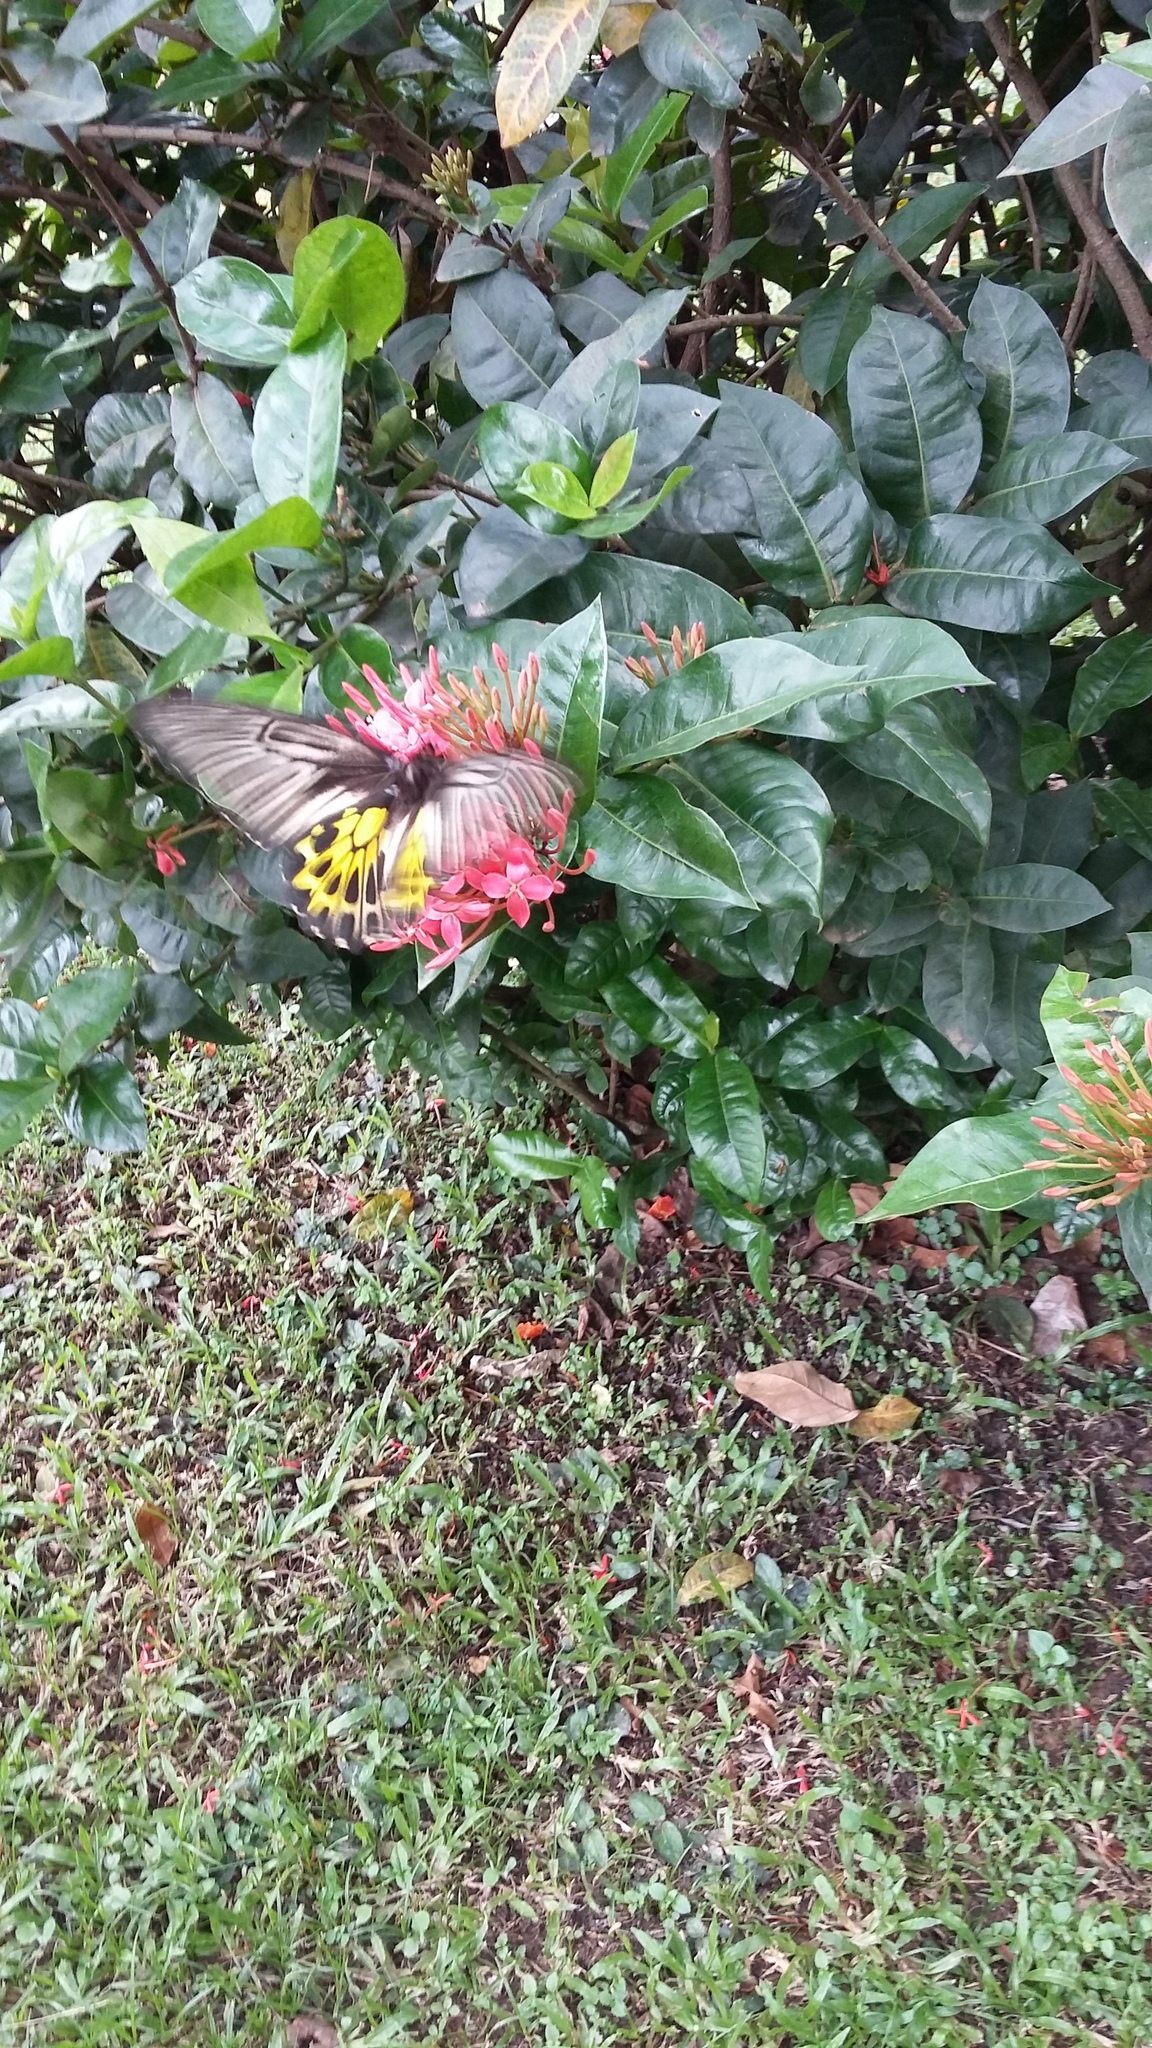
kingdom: Animalia
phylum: Arthropoda
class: Insecta
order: Lepidoptera
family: Papilionidae
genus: Troides
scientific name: Troides aeacus
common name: Golden birdwing
